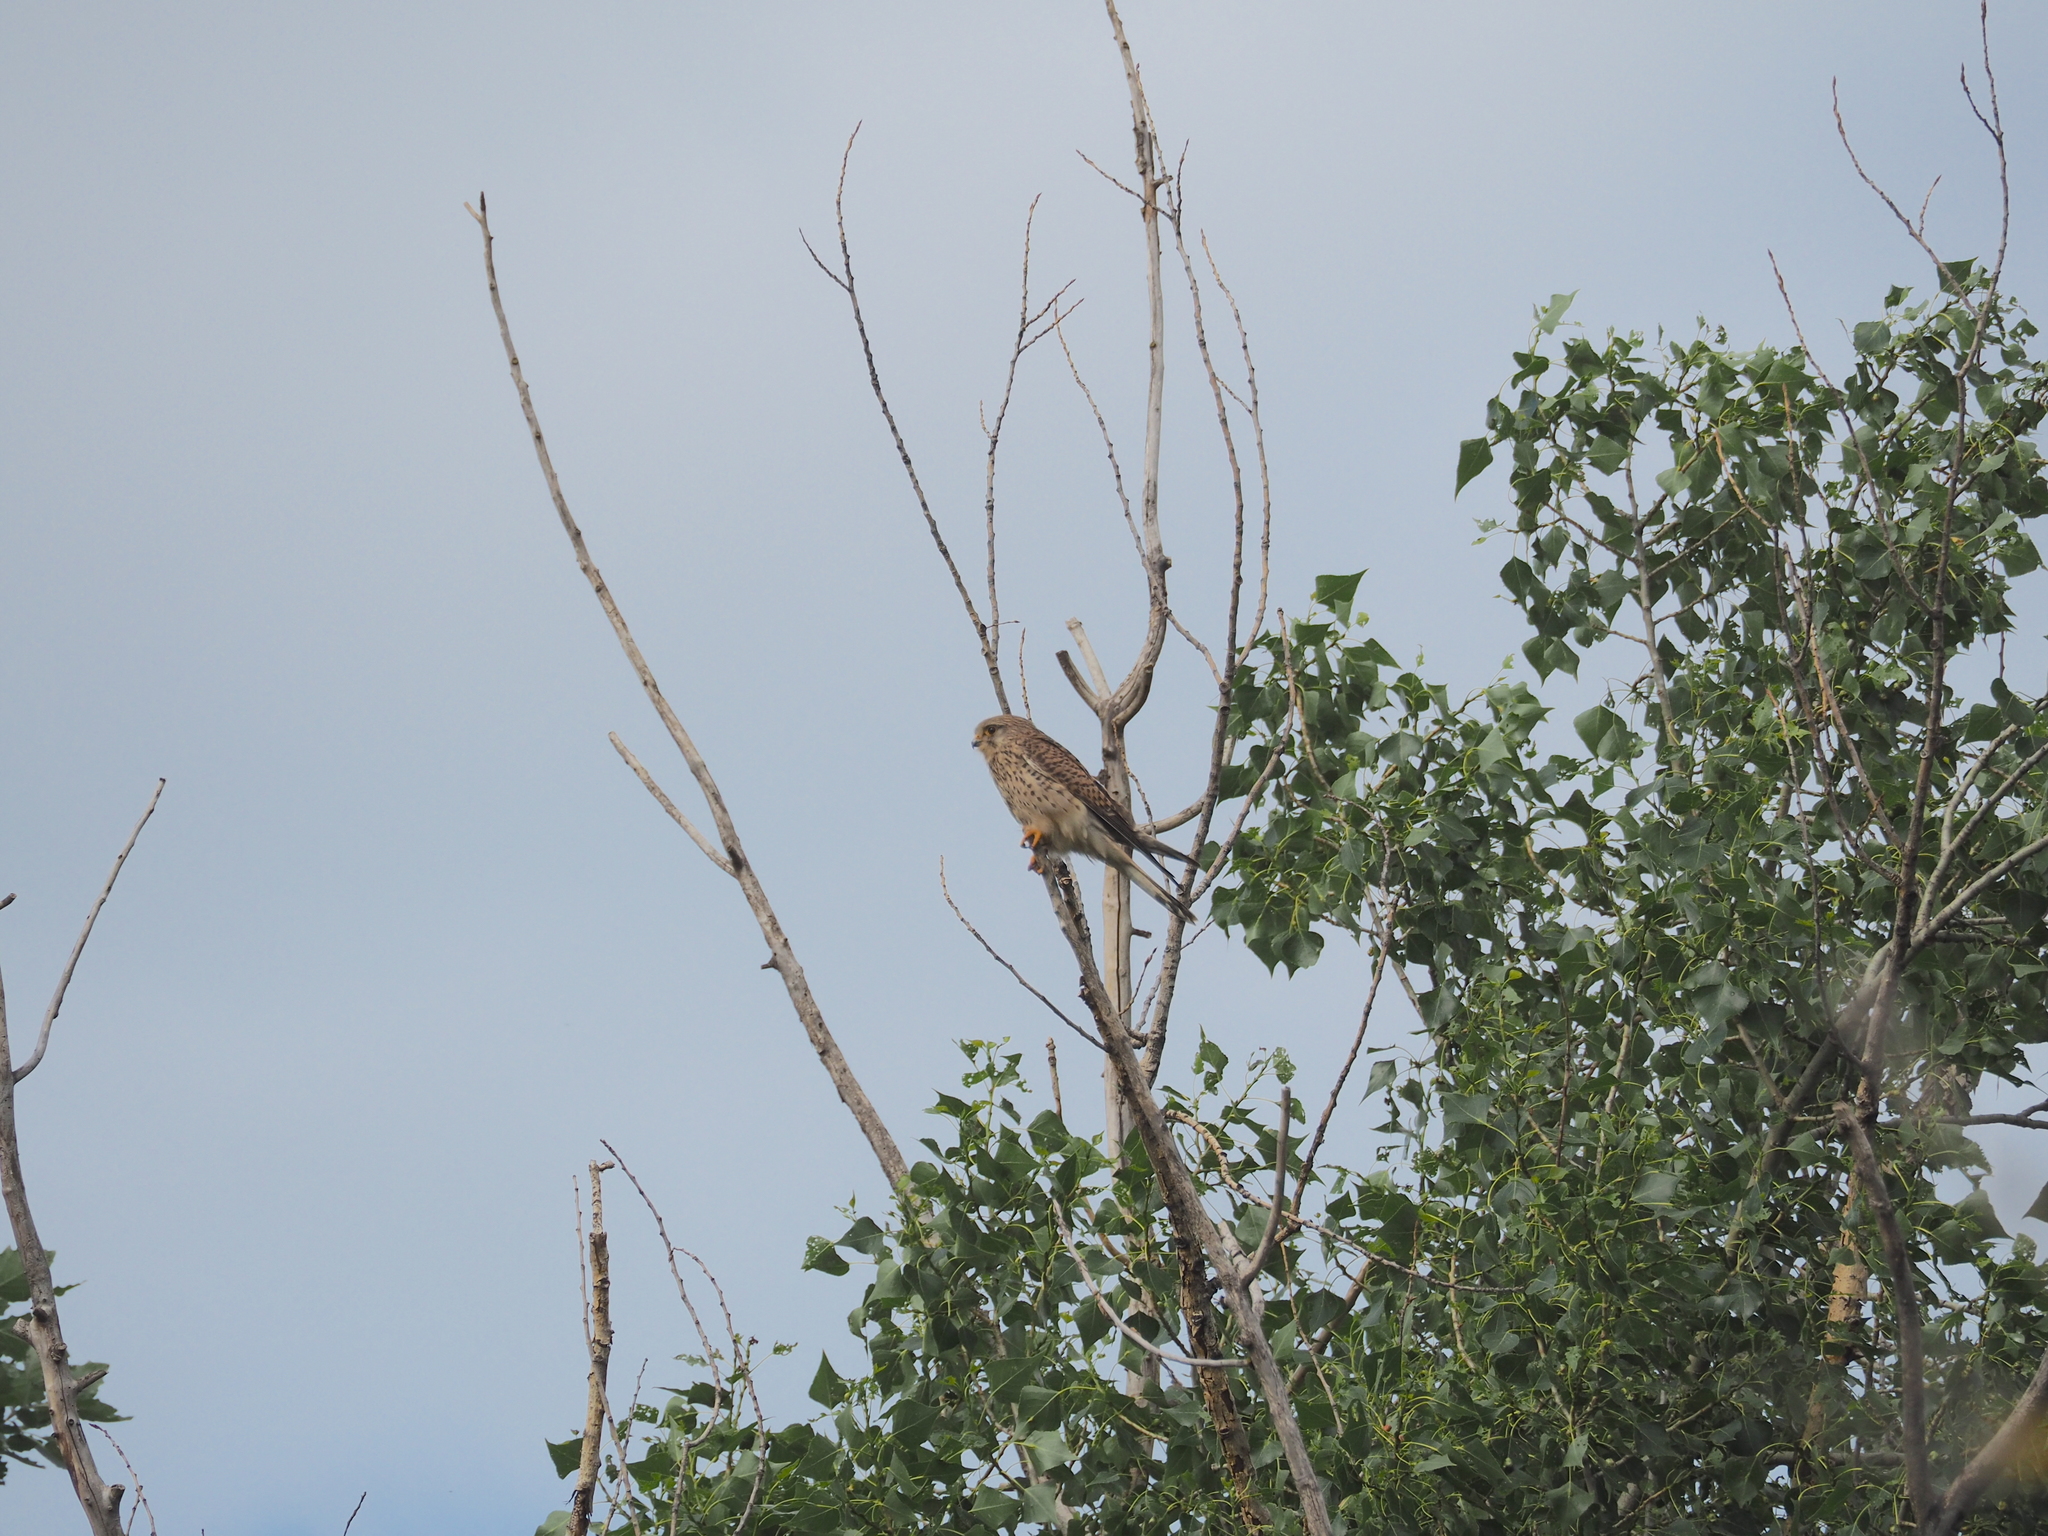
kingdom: Animalia
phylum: Chordata
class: Aves
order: Falconiformes
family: Falconidae
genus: Falco
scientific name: Falco tinnunculus
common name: Common kestrel
